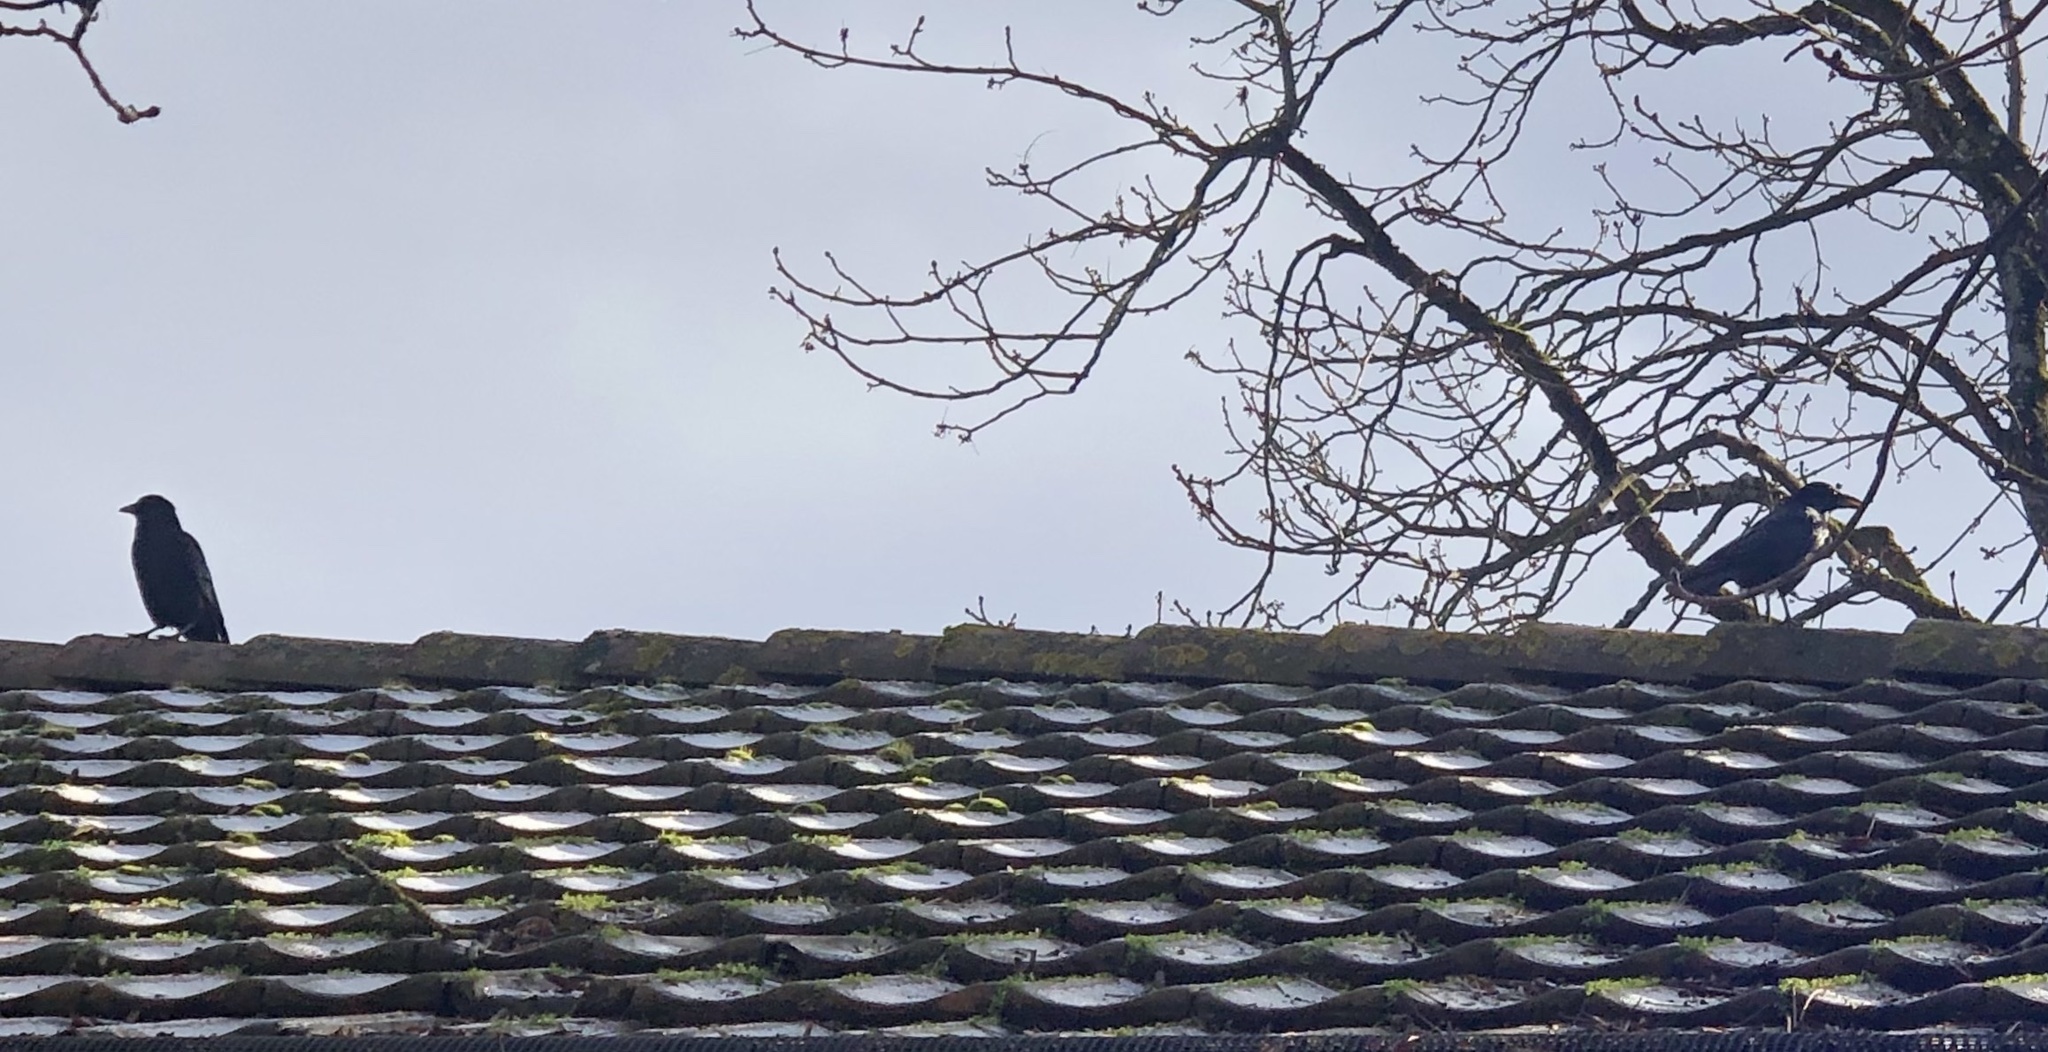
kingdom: Animalia
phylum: Chordata
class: Aves
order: Passeriformes
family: Corvidae
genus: Corvus
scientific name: Corvus corone
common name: Carrion crow
